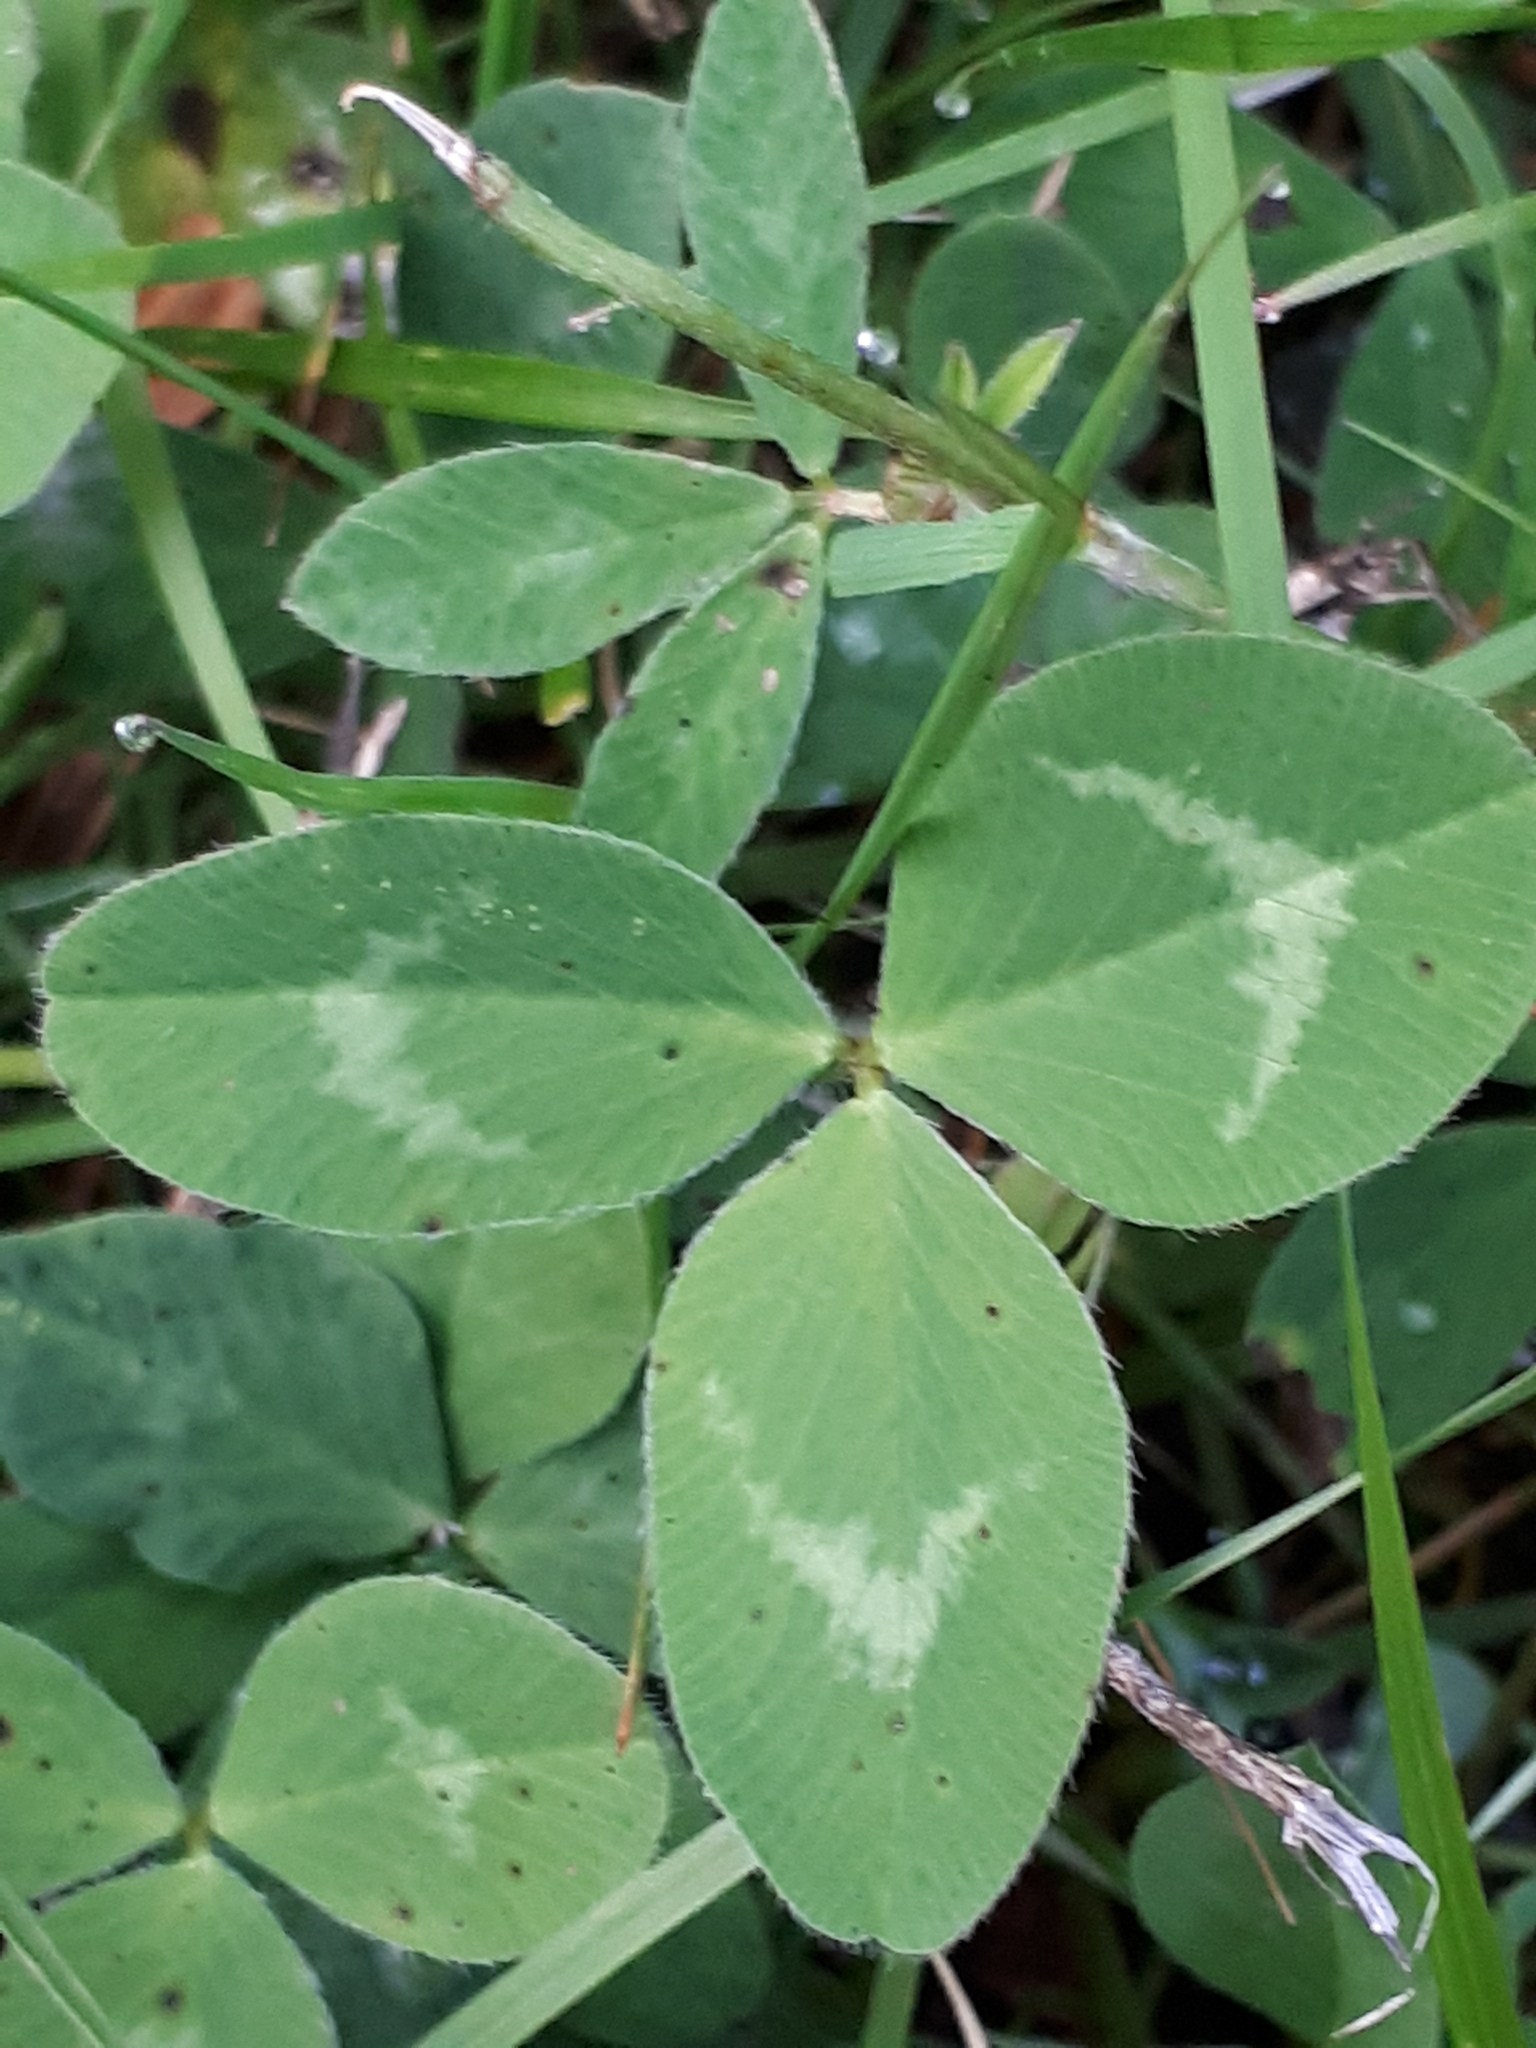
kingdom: Plantae
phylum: Tracheophyta
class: Magnoliopsida
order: Fabales
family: Fabaceae
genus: Trifolium
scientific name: Trifolium pratense
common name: Red clover
